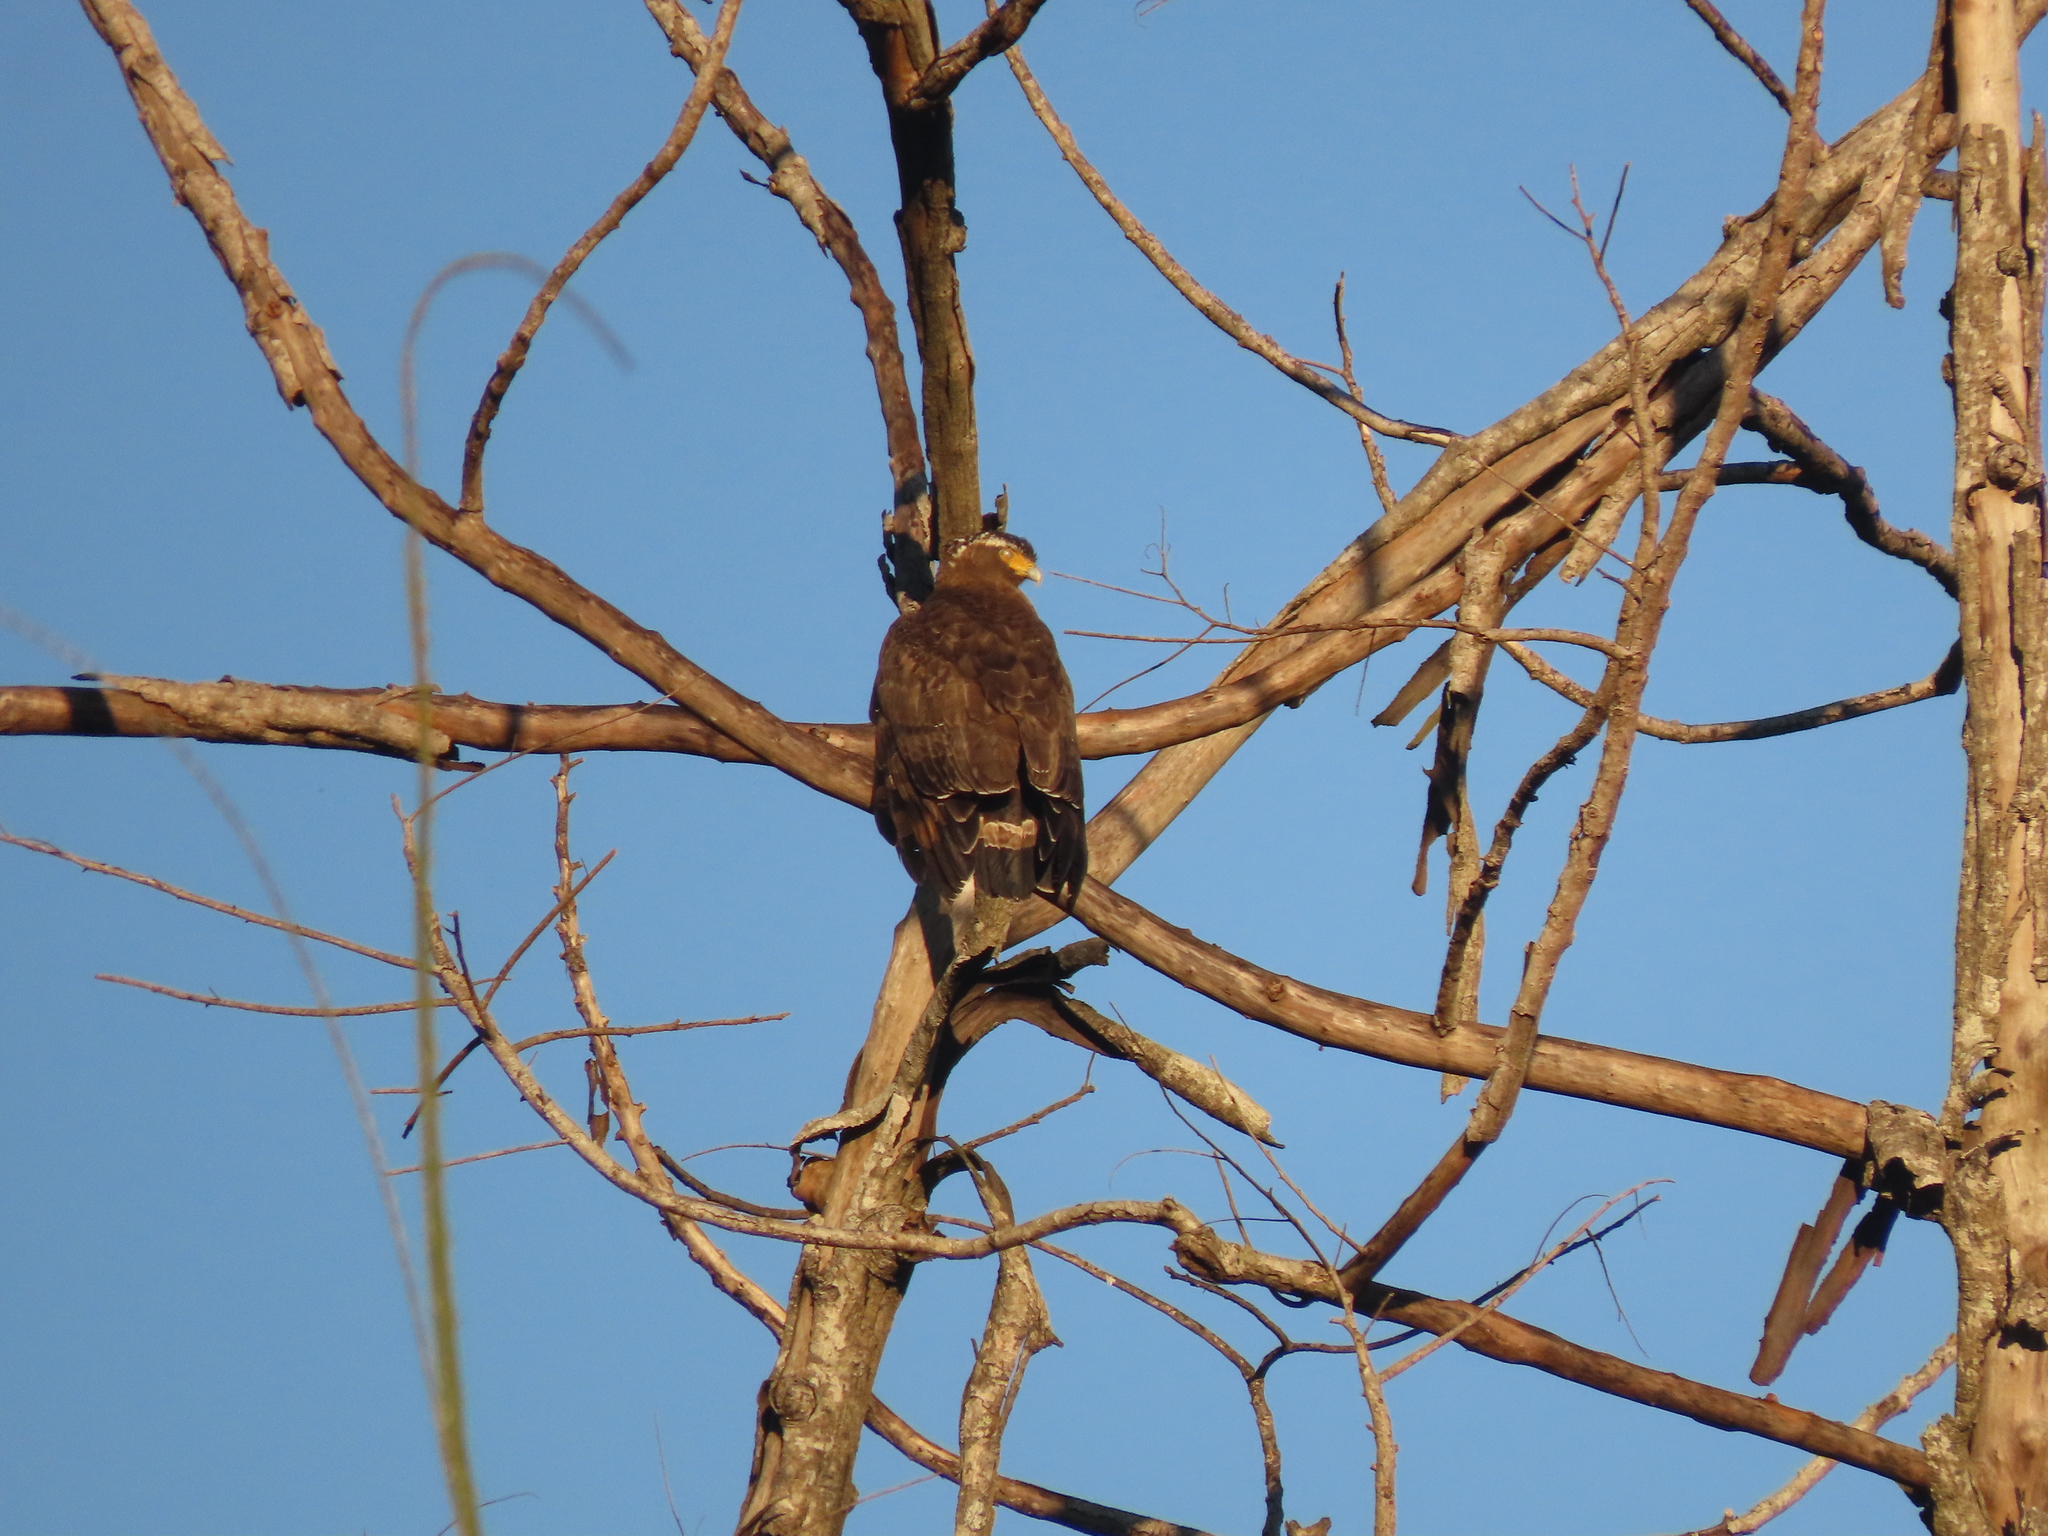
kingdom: Animalia
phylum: Chordata
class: Aves
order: Accipitriformes
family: Accipitridae
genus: Spilornis
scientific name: Spilornis cheela
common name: Crested serpent eagle
